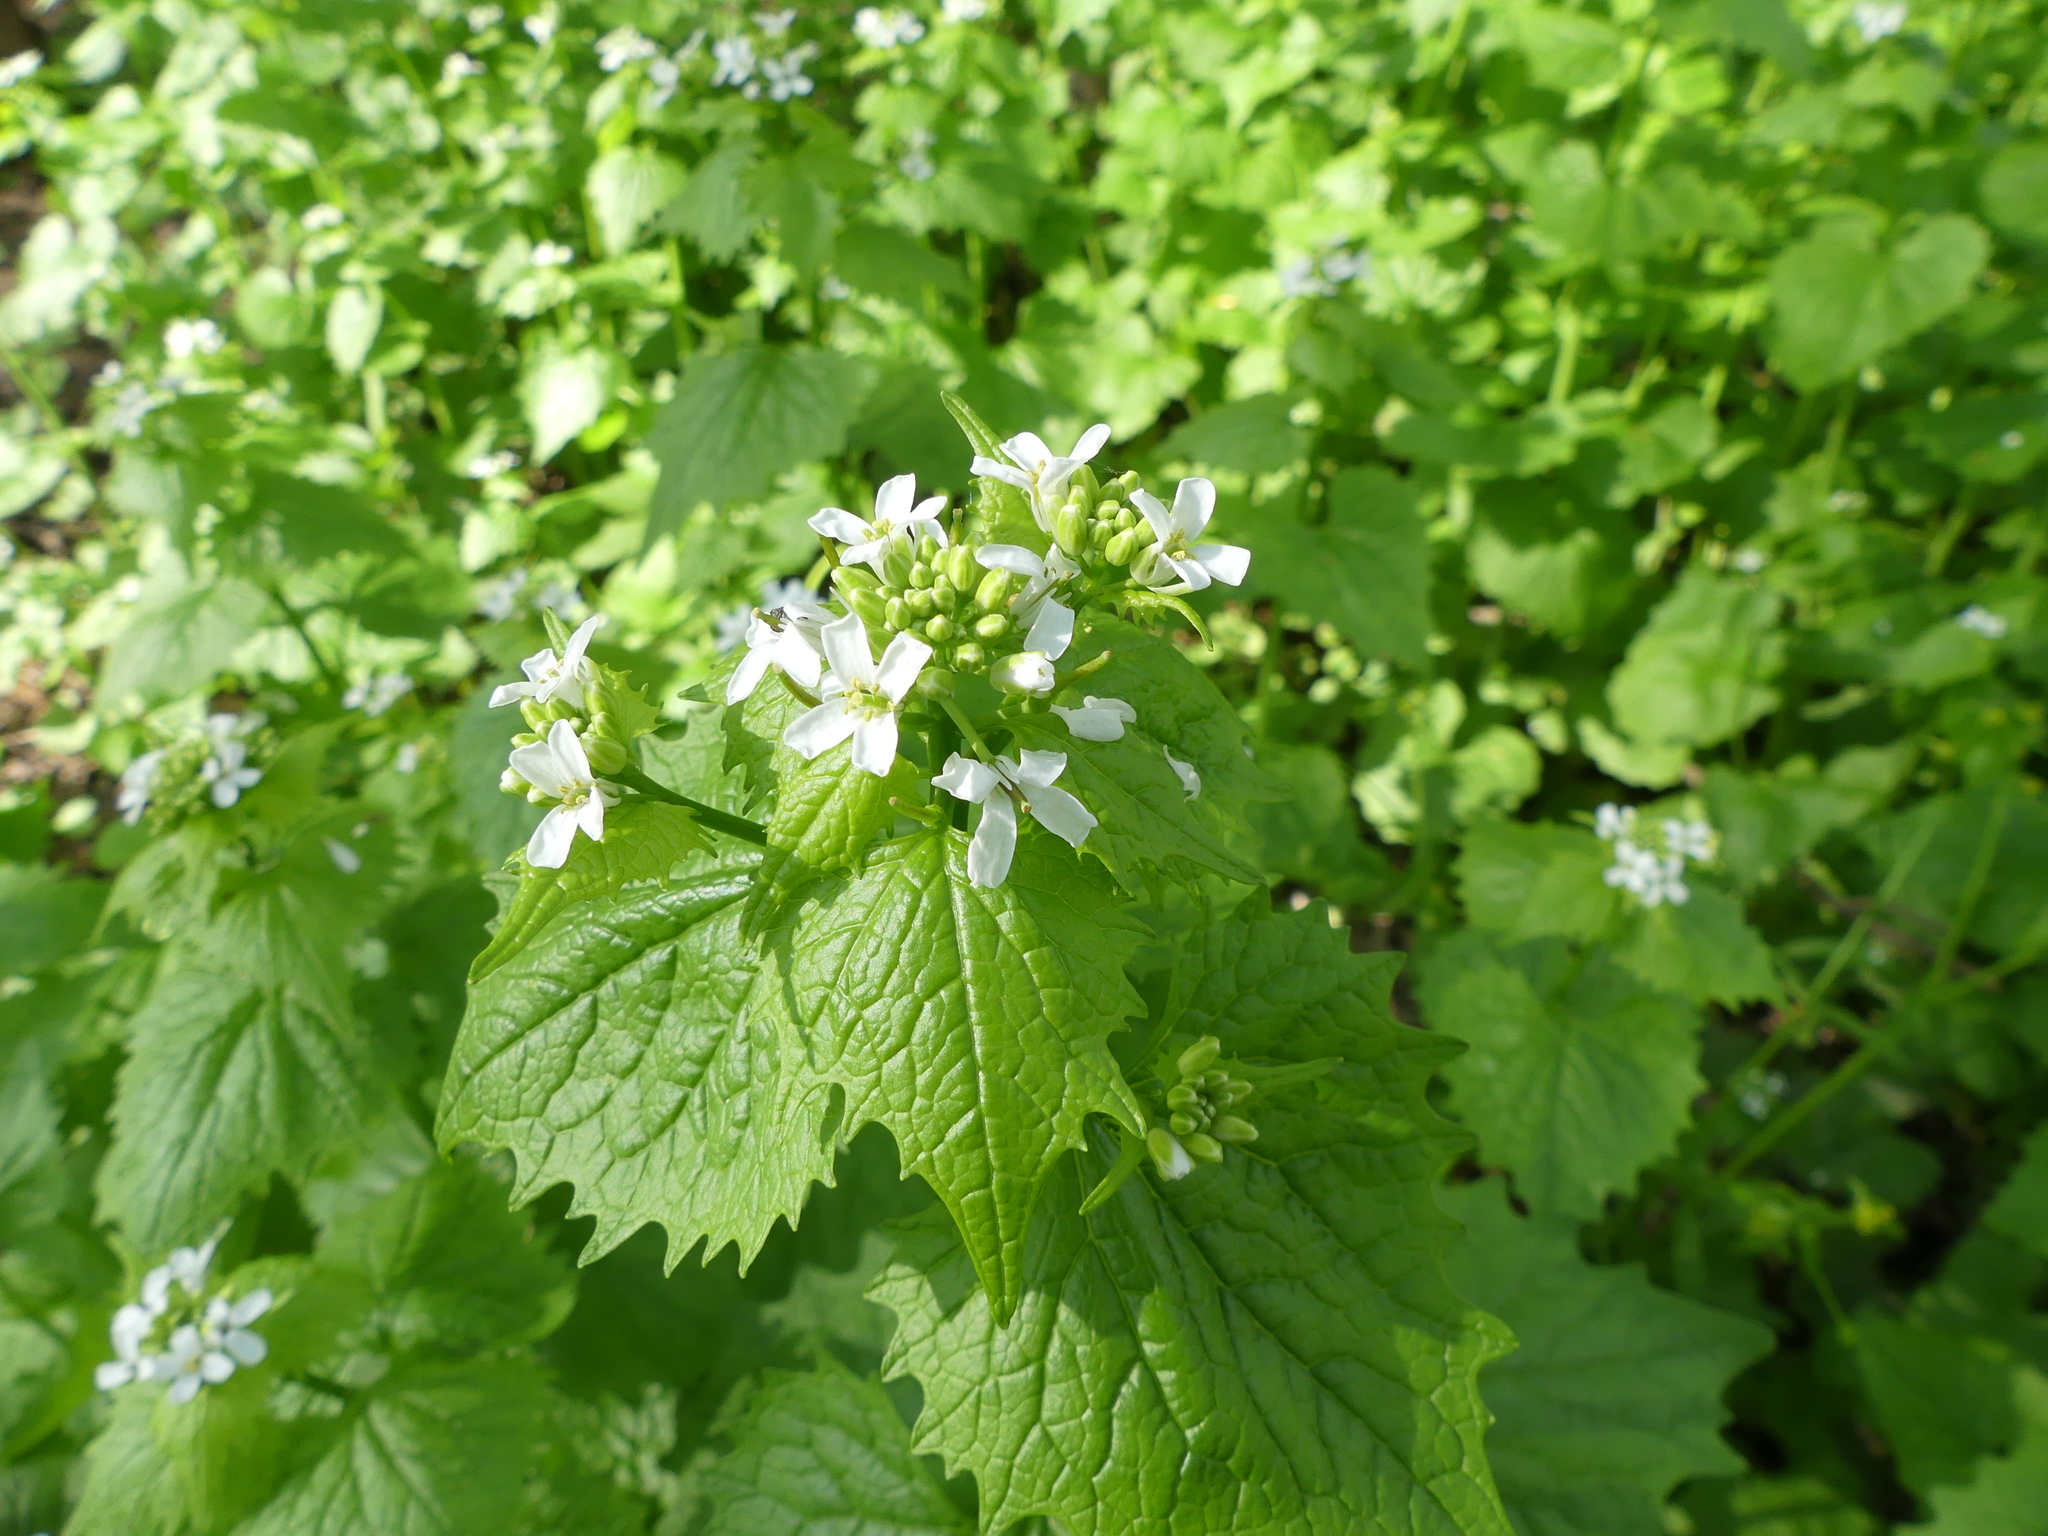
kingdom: Plantae
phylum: Tracheophyta
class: Magnoliopsida
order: Brassicales
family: Brassicaceae
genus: Alliaria
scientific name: Alliaria petiolata
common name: Garlic mustard
